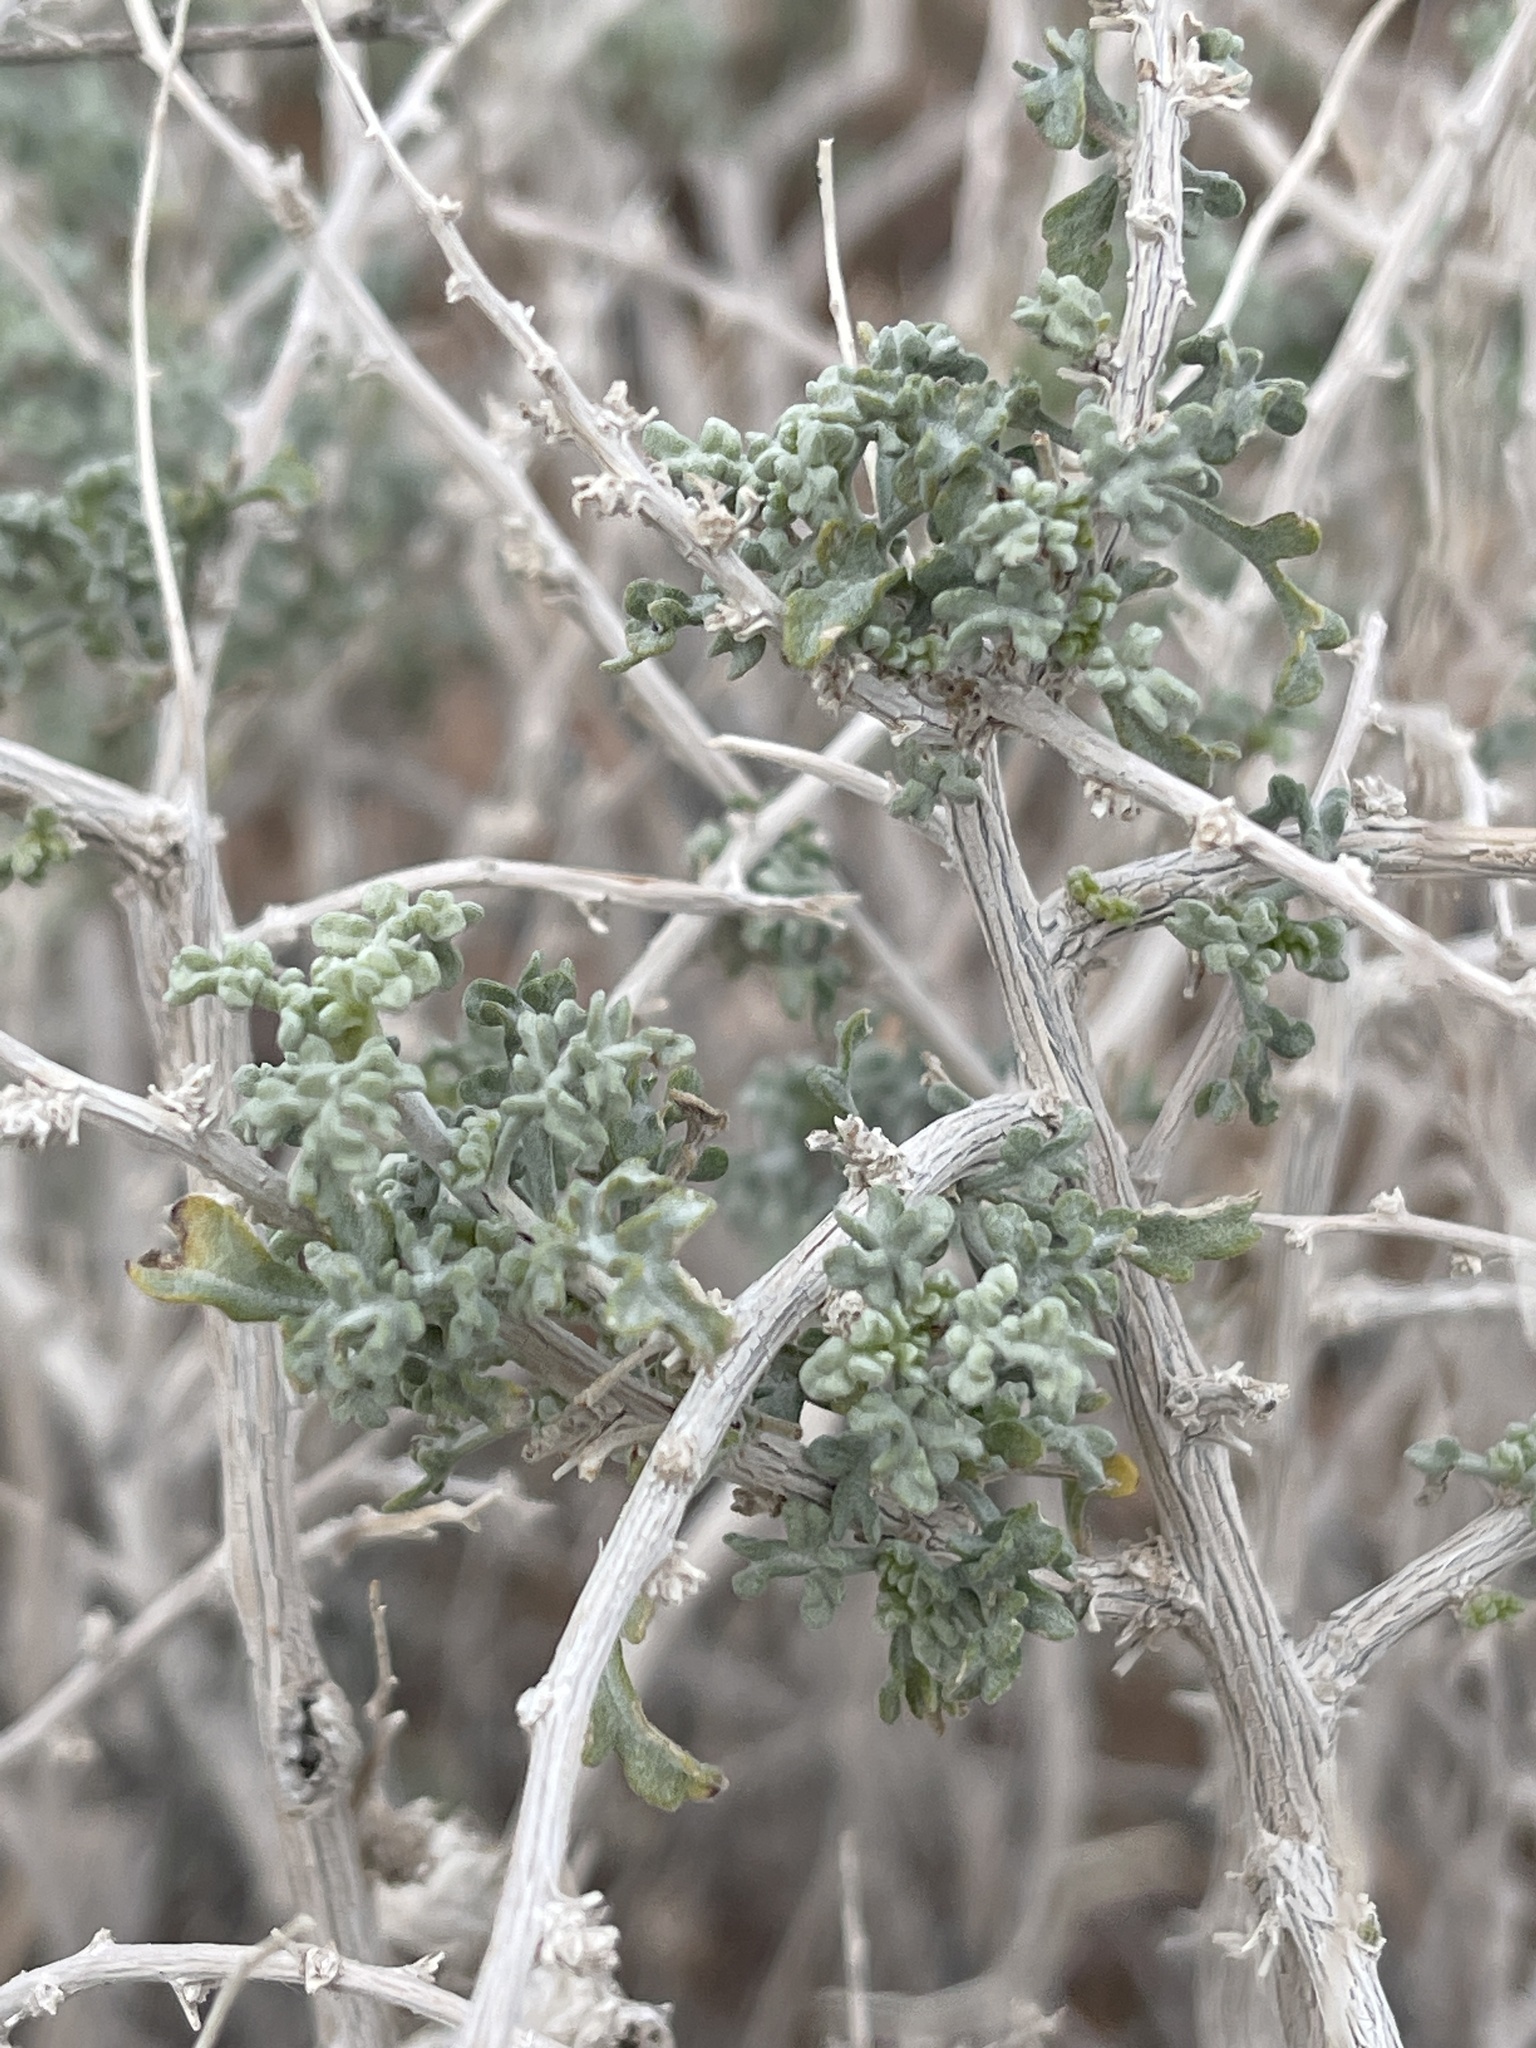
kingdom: Plantae
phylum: Tracheophyta
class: Magnoliopsida
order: Asterales
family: Asteraceae
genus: Ambrosia
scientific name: Ambrosia dumosa
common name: Bur-sage
